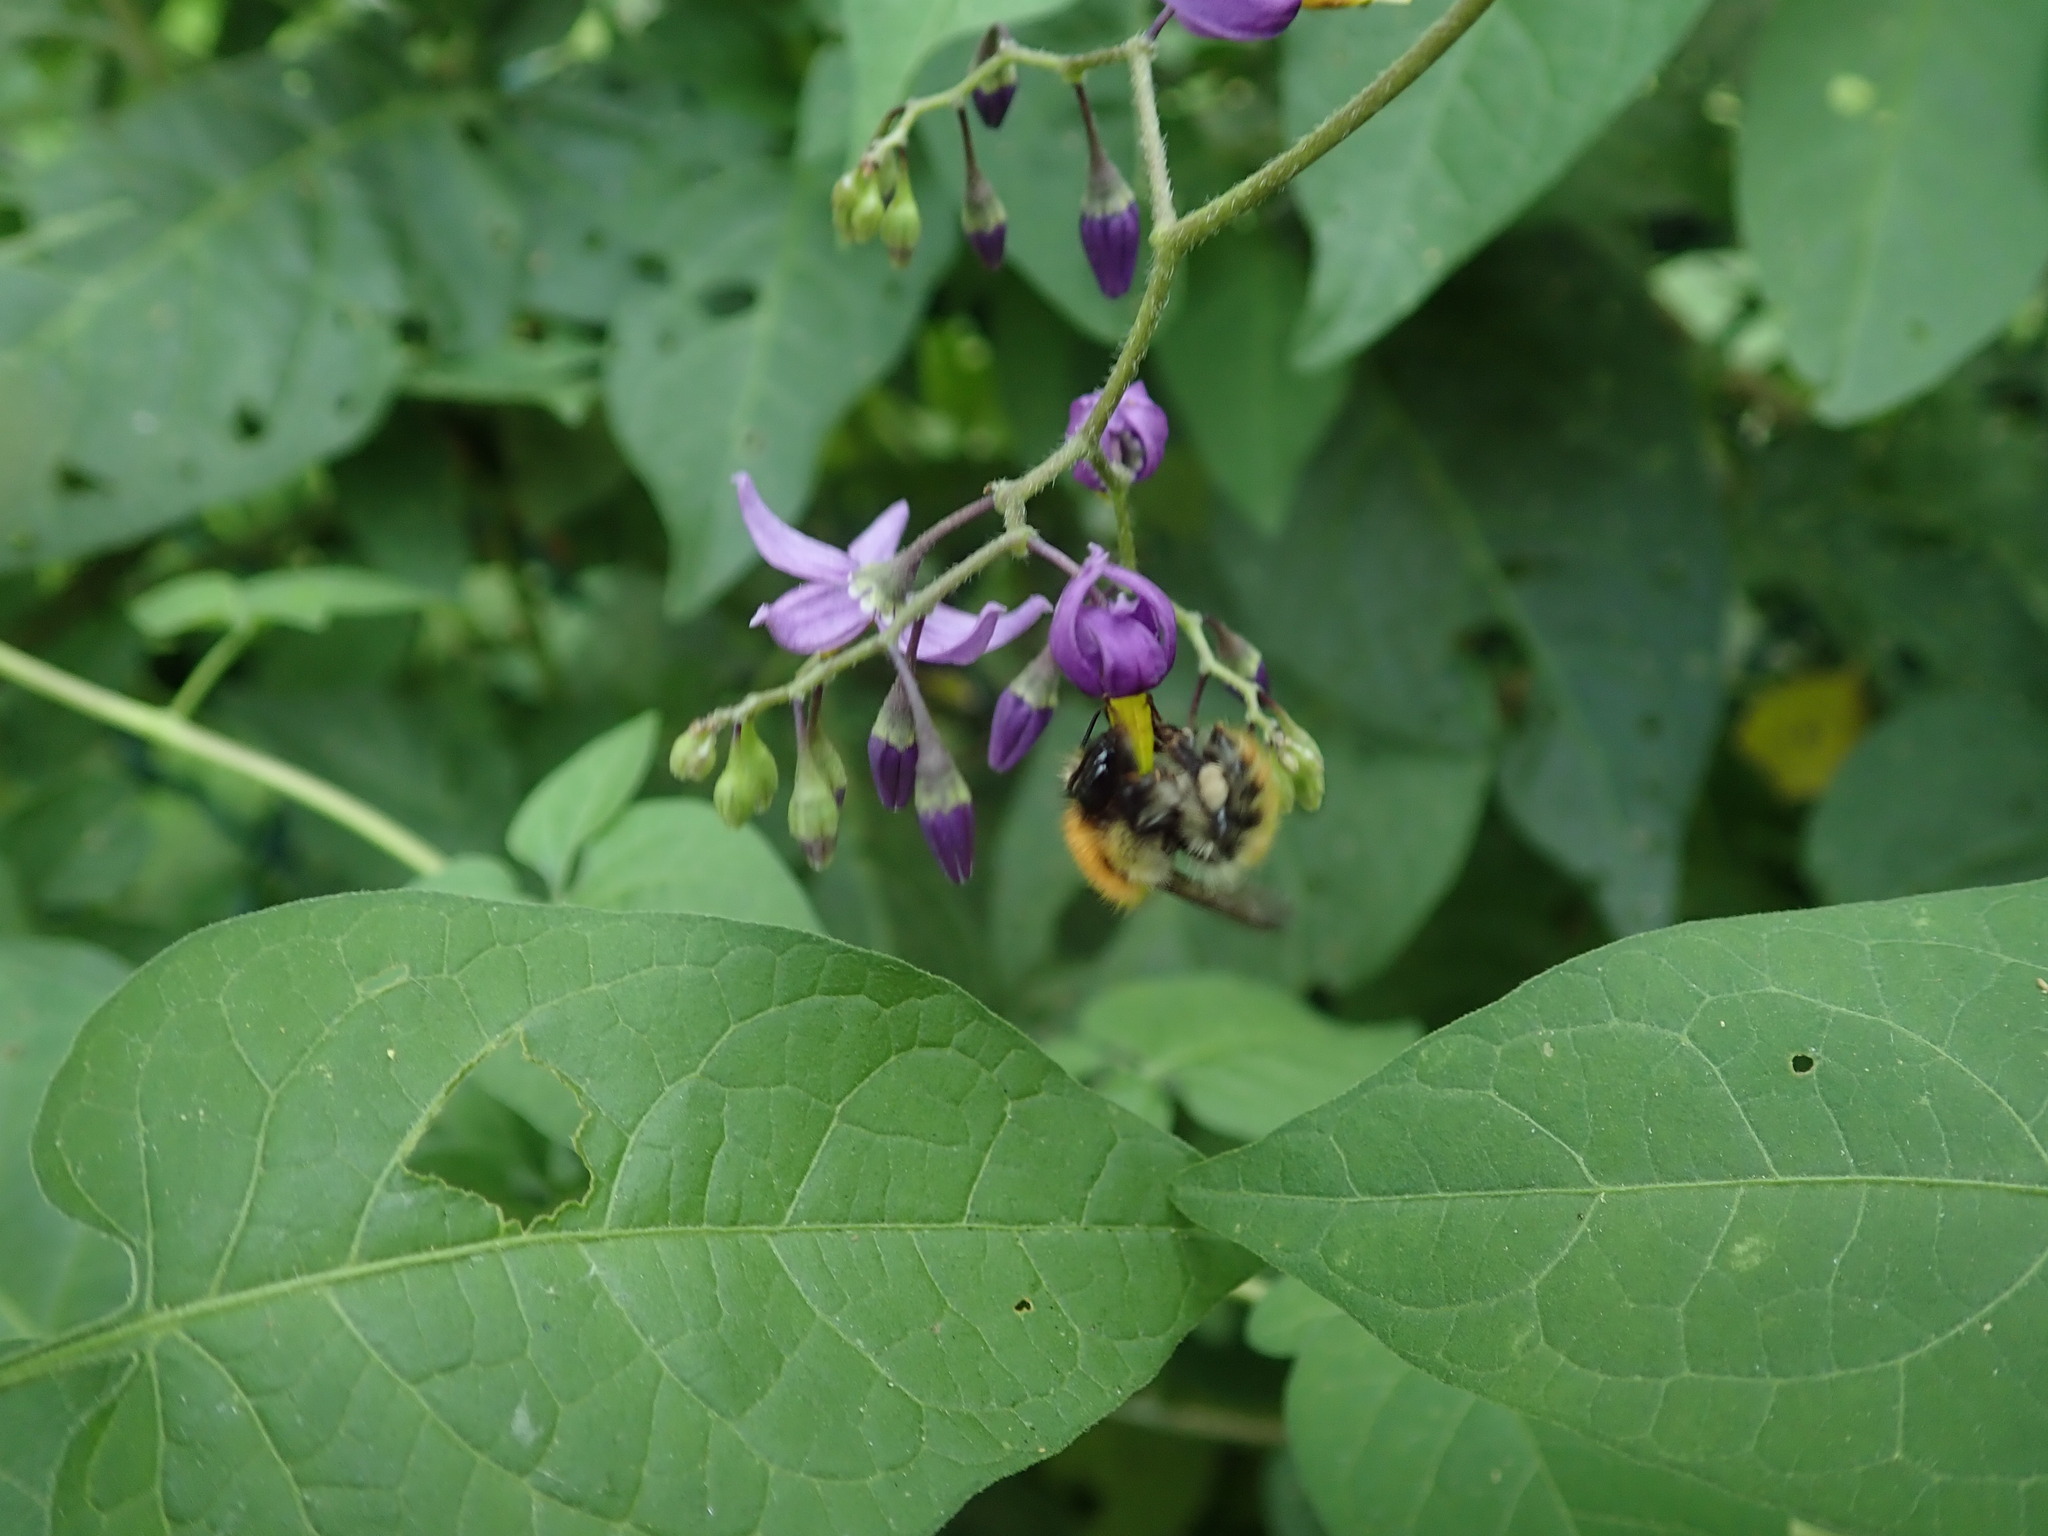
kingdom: Animalia
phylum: Arthropoda
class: Insecta
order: Hymenoptera
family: Apidae
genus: Bombus
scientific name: Bombus pascuorum
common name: Common carder bee
